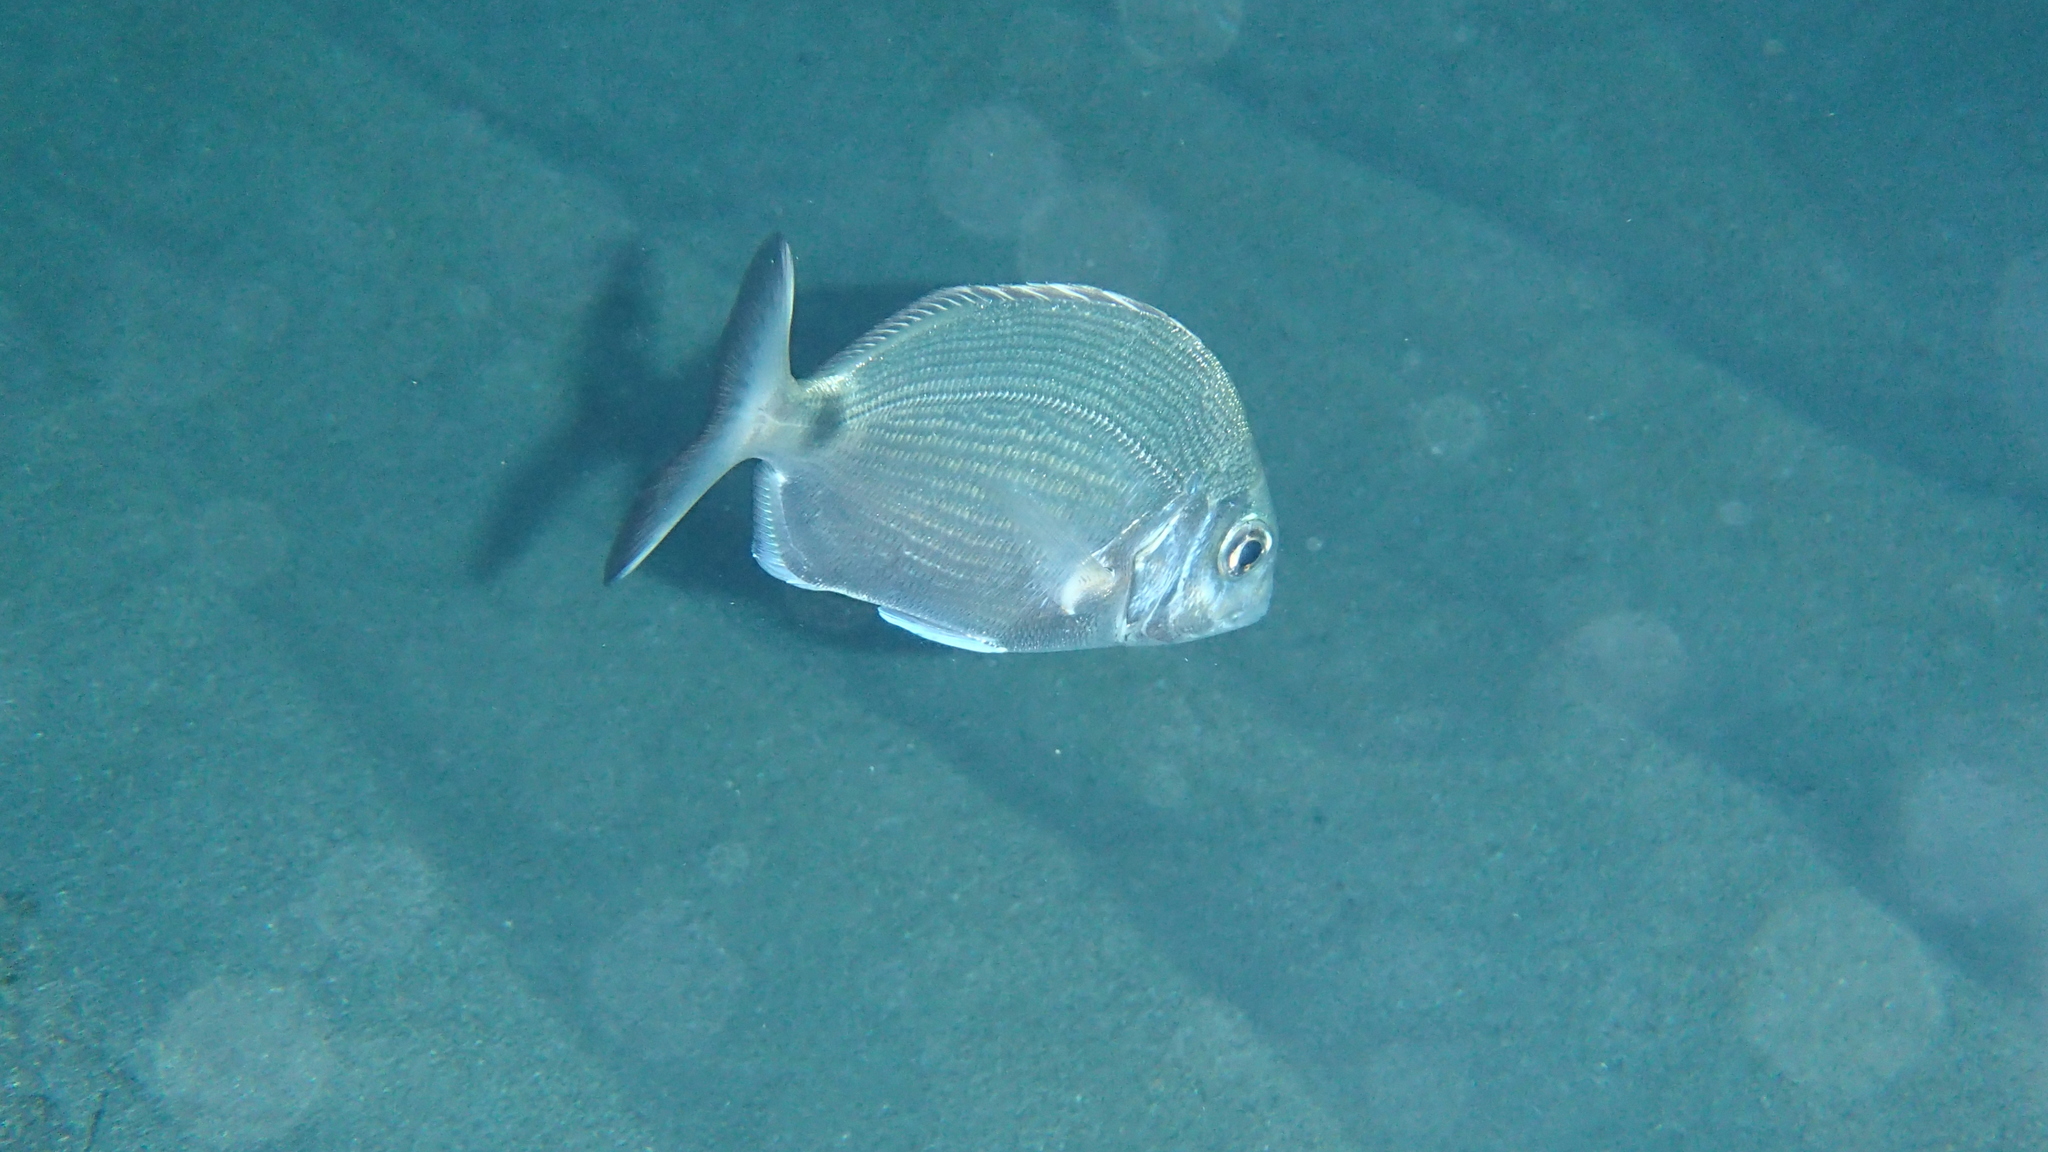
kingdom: Animalia
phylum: Chordata
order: Perciformes
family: Sparidae
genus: Diplodus
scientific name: Diplodus sargus
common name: White seabream
